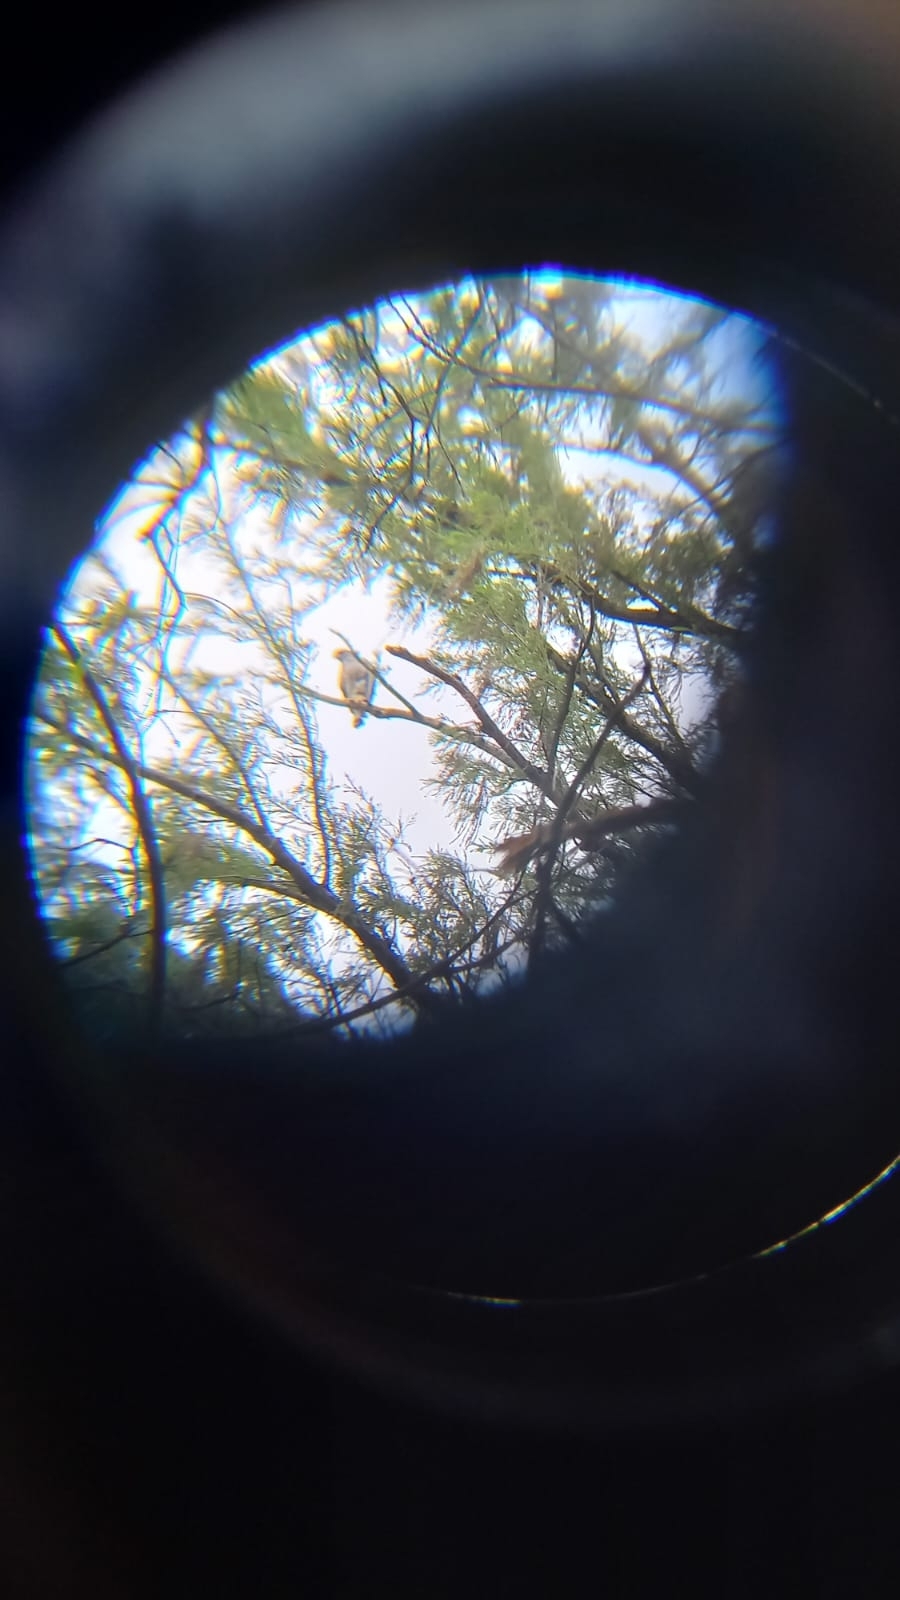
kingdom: Animalia
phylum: Chordata
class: Aves
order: Accipitriformes
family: Accipitridae
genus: Buteo
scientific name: Buteo nitidus
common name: Grey-lined hawk
